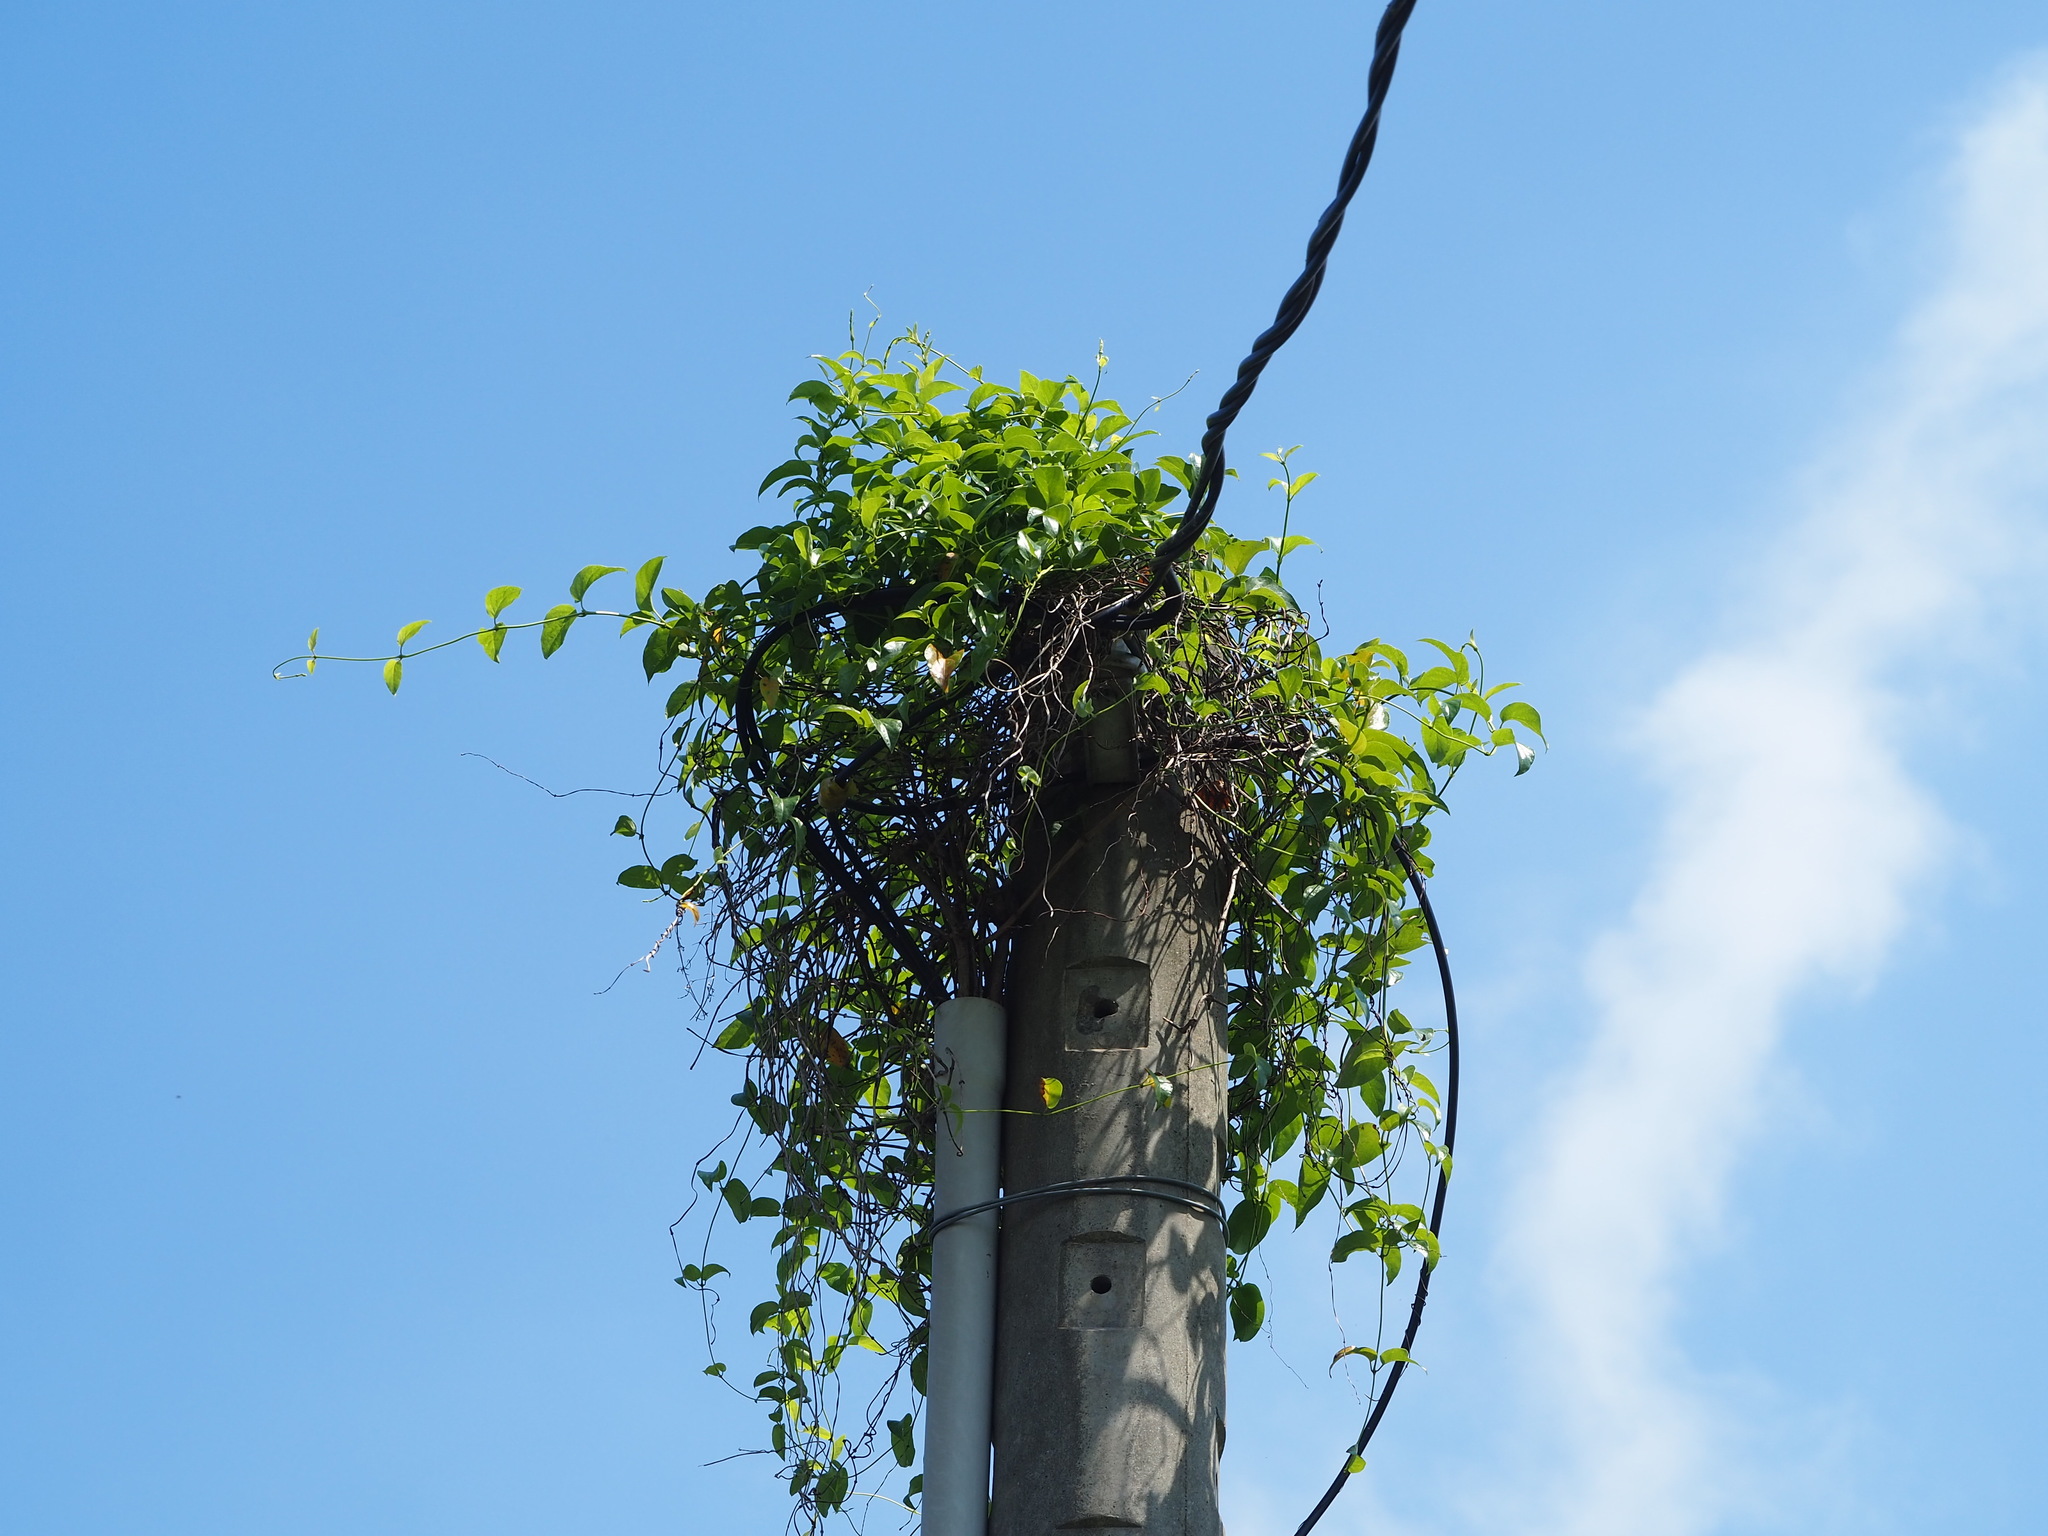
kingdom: Plantae
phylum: Tracheophyta
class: Magnoliopsida
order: Gentianales
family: Rubiaceae
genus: Paederia
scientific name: Paederia foetida
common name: Stinkvine
